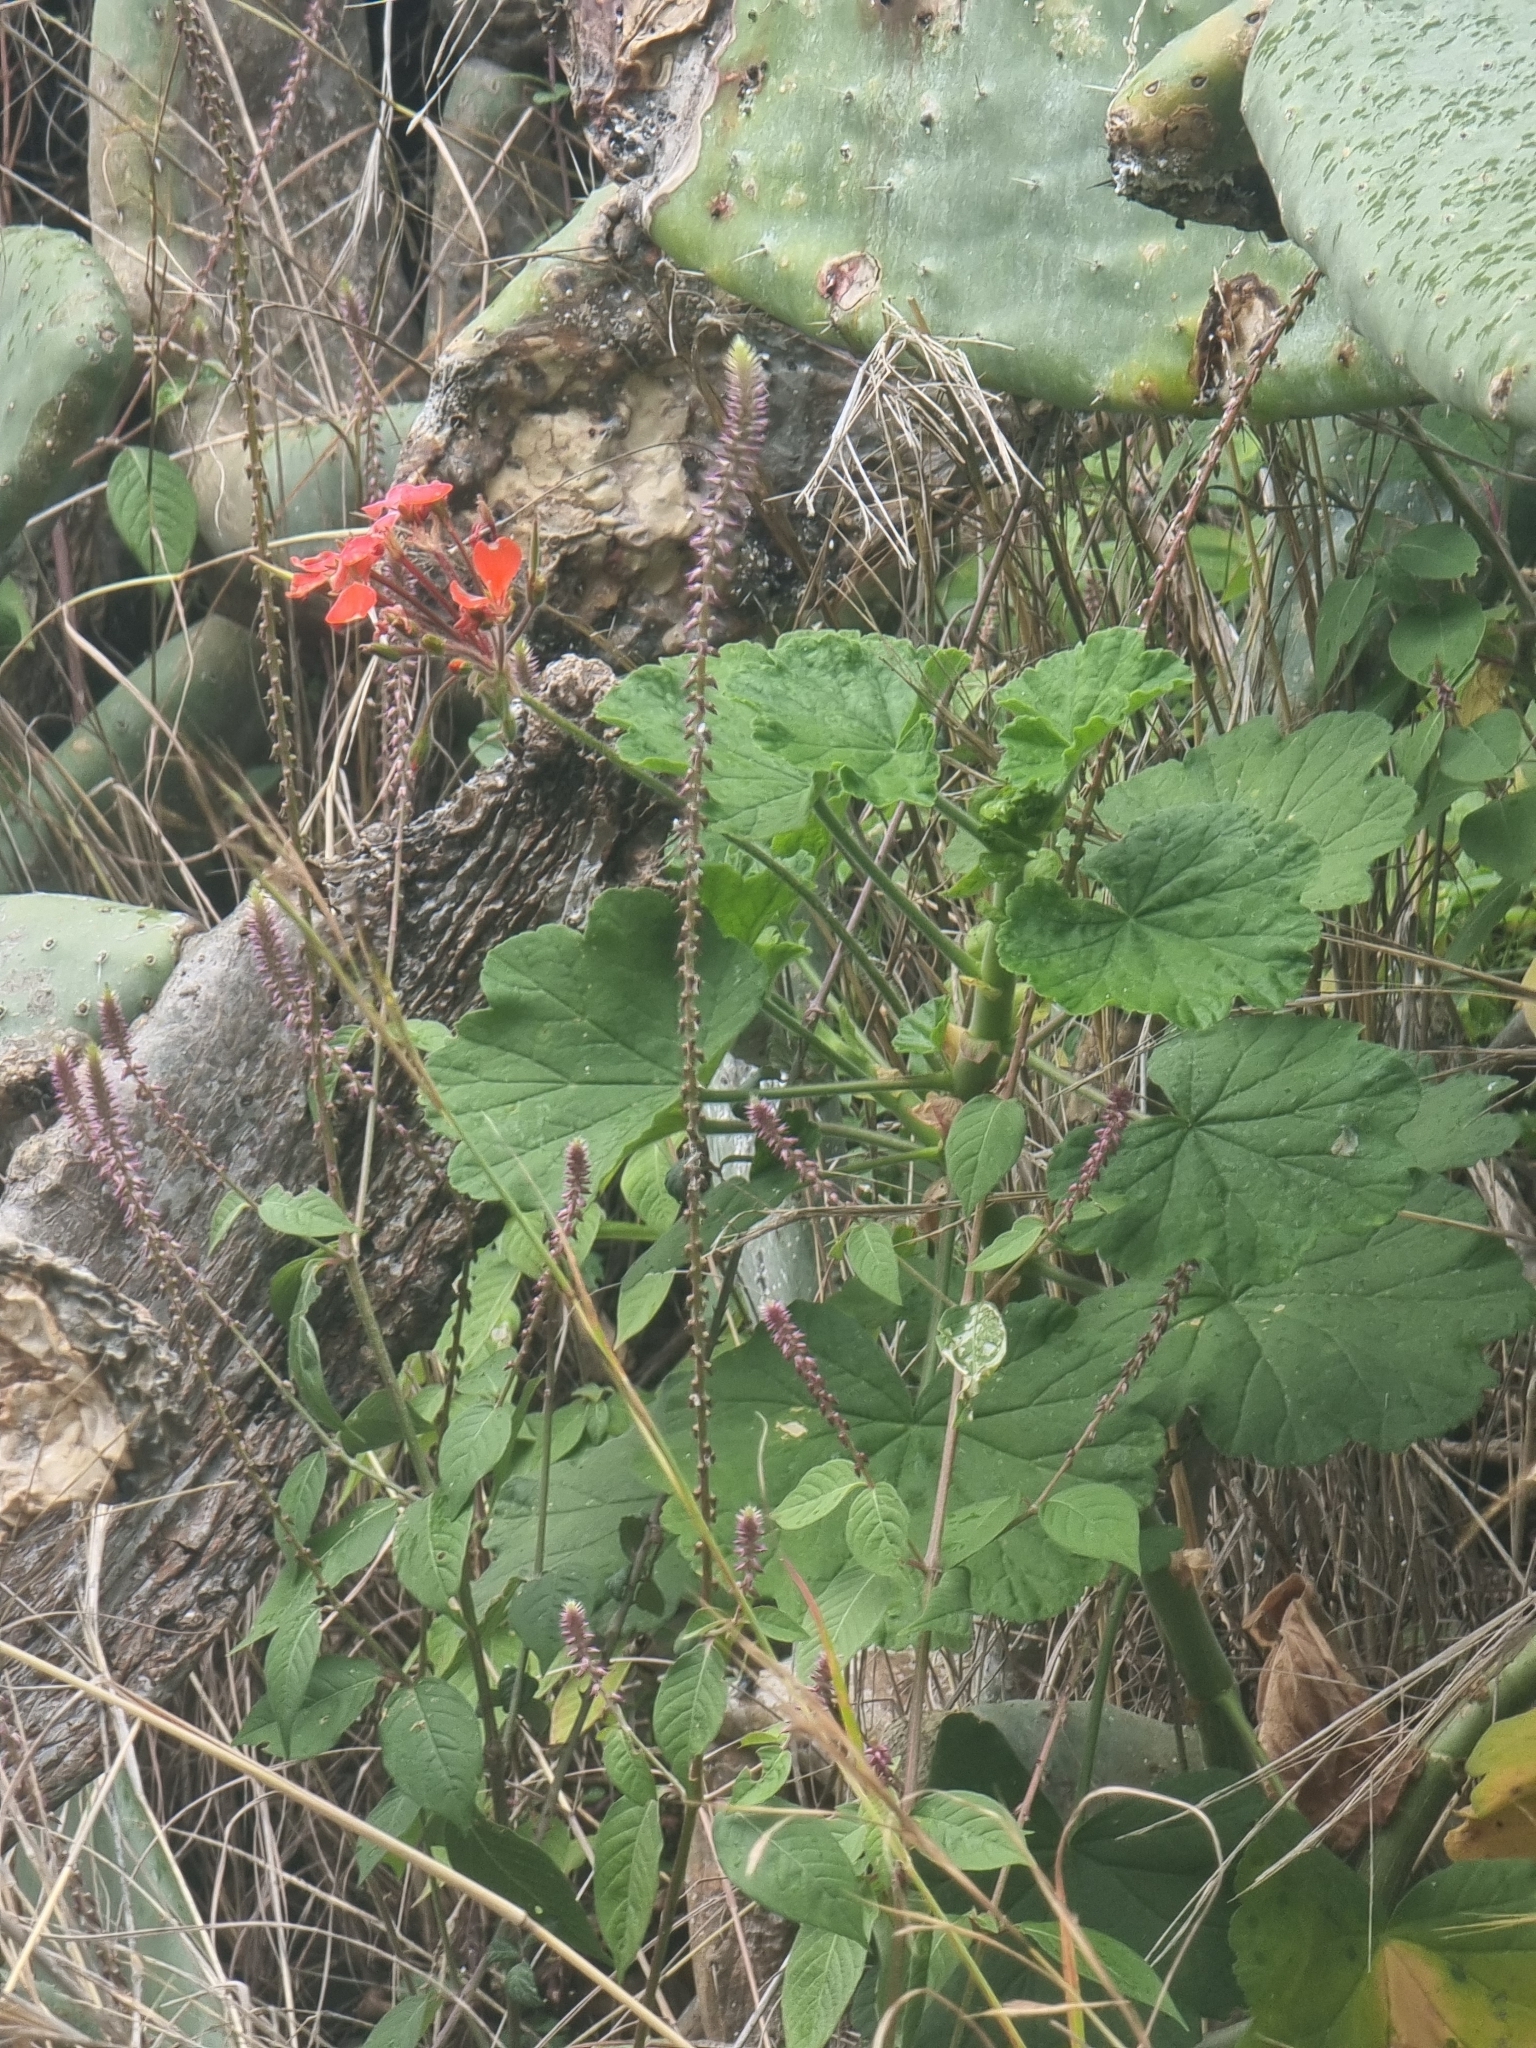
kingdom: Plantae
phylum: Tracheophyta
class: Magnoliopsida
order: Geraniales
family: Geraniaceae
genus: Pelargonium
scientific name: Pelargonium hybridum
